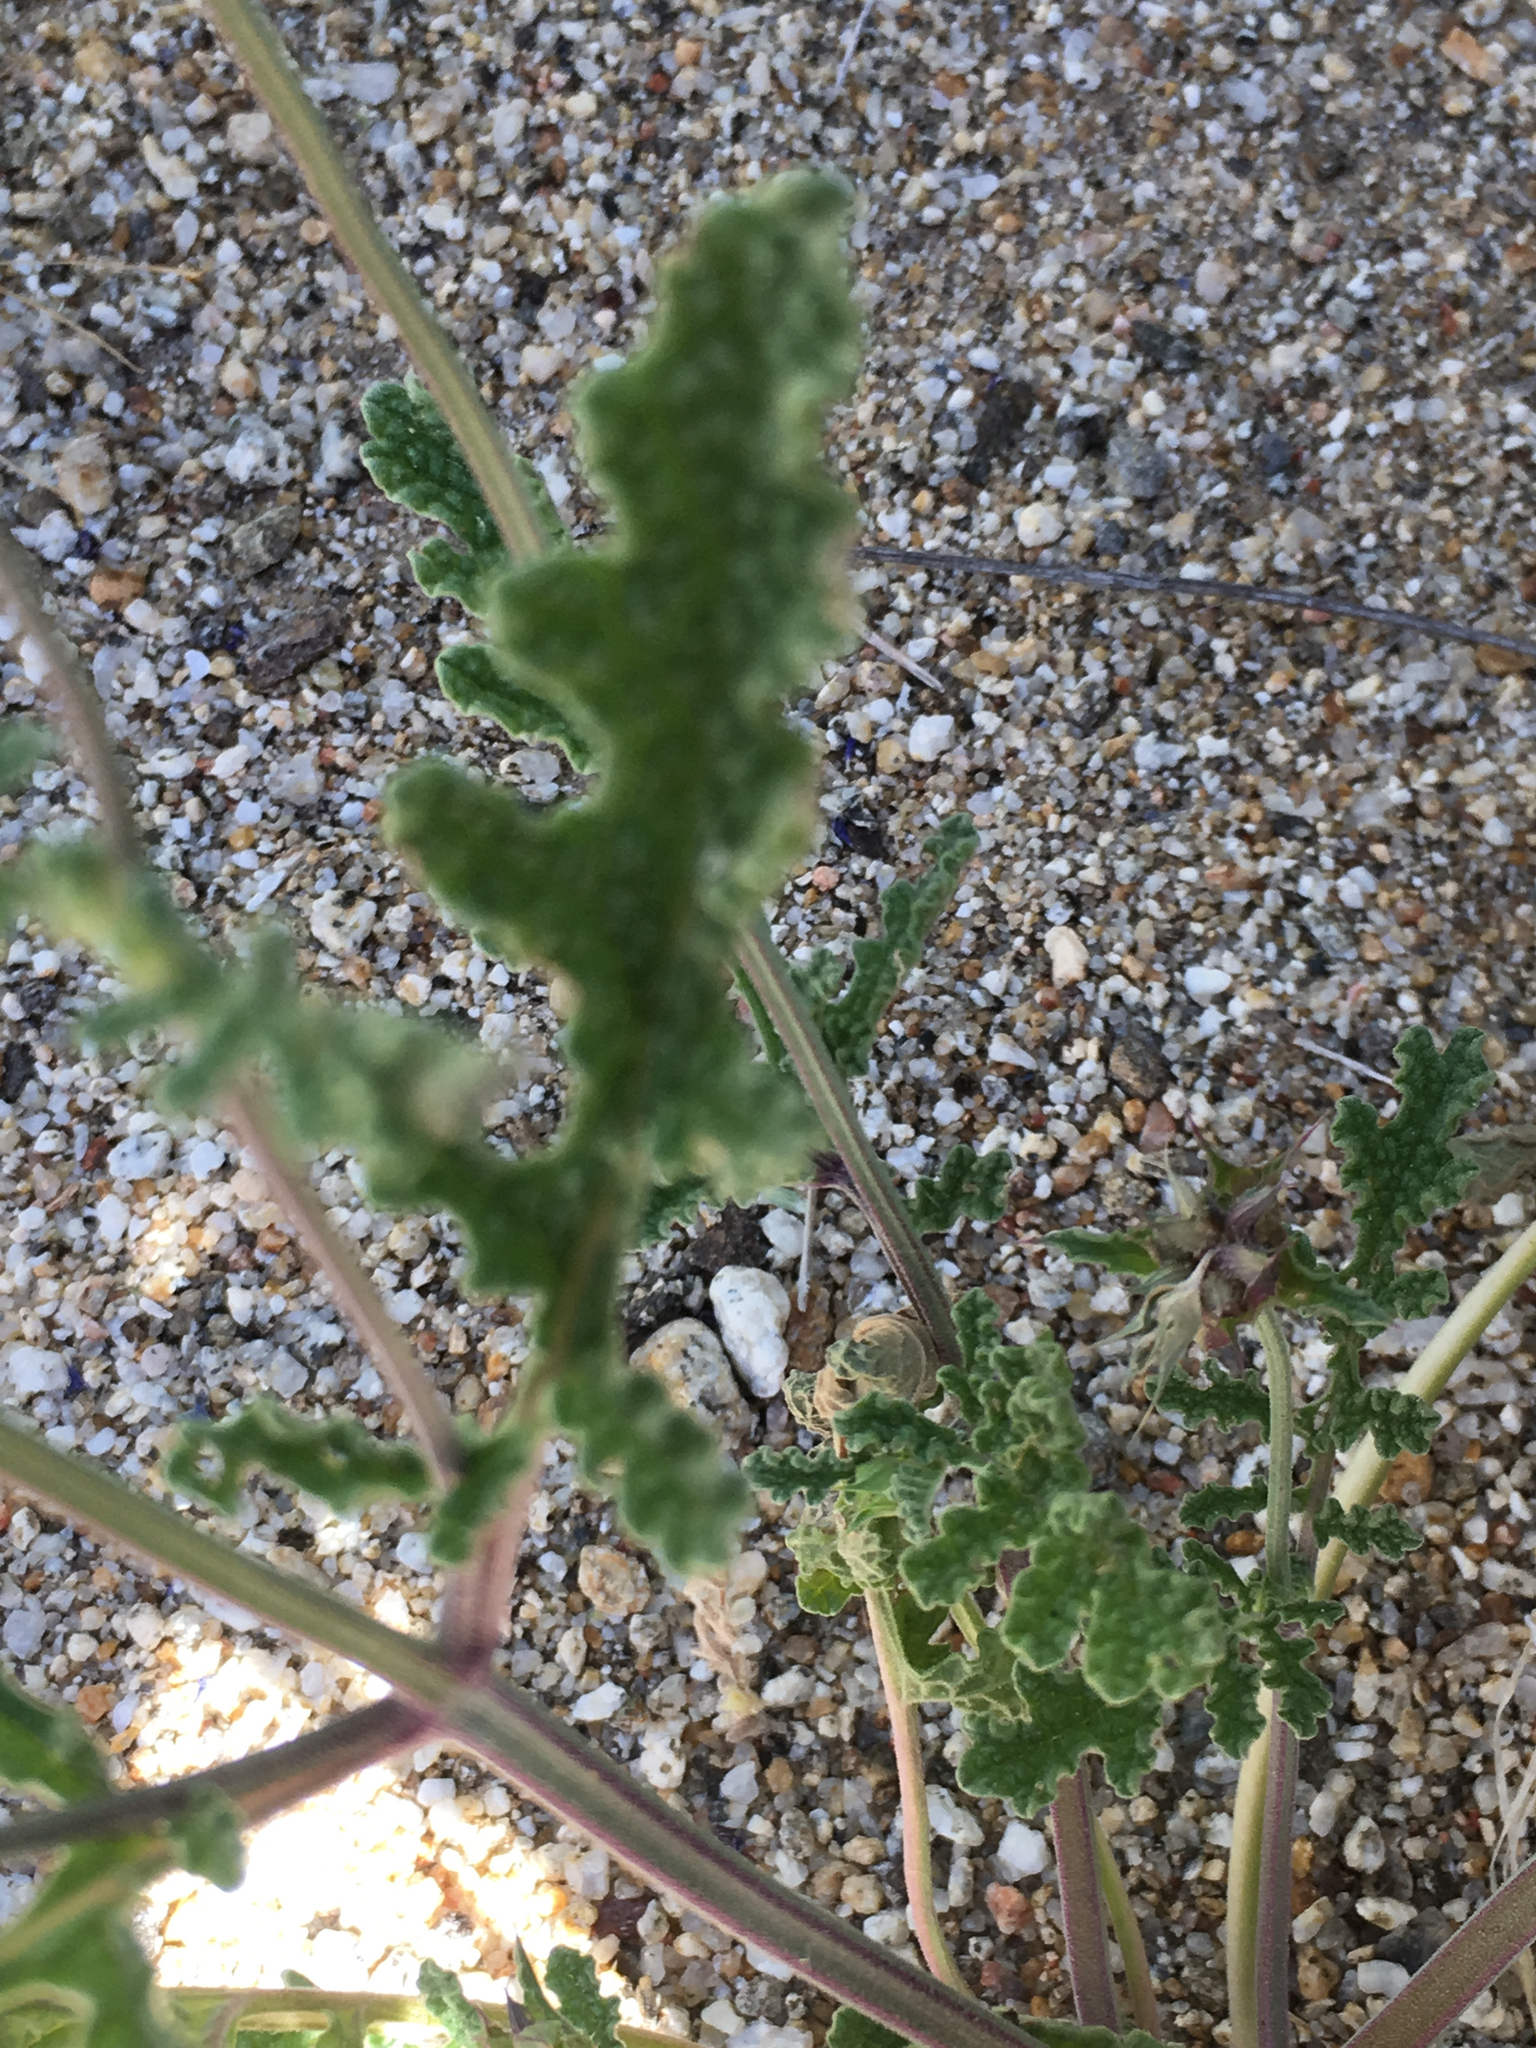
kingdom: Plantae
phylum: Tracheophyta
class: Magnoliopsida
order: Lamiales
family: Lamiaceae
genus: Salvia
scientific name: Salvia columbariae
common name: Chia
